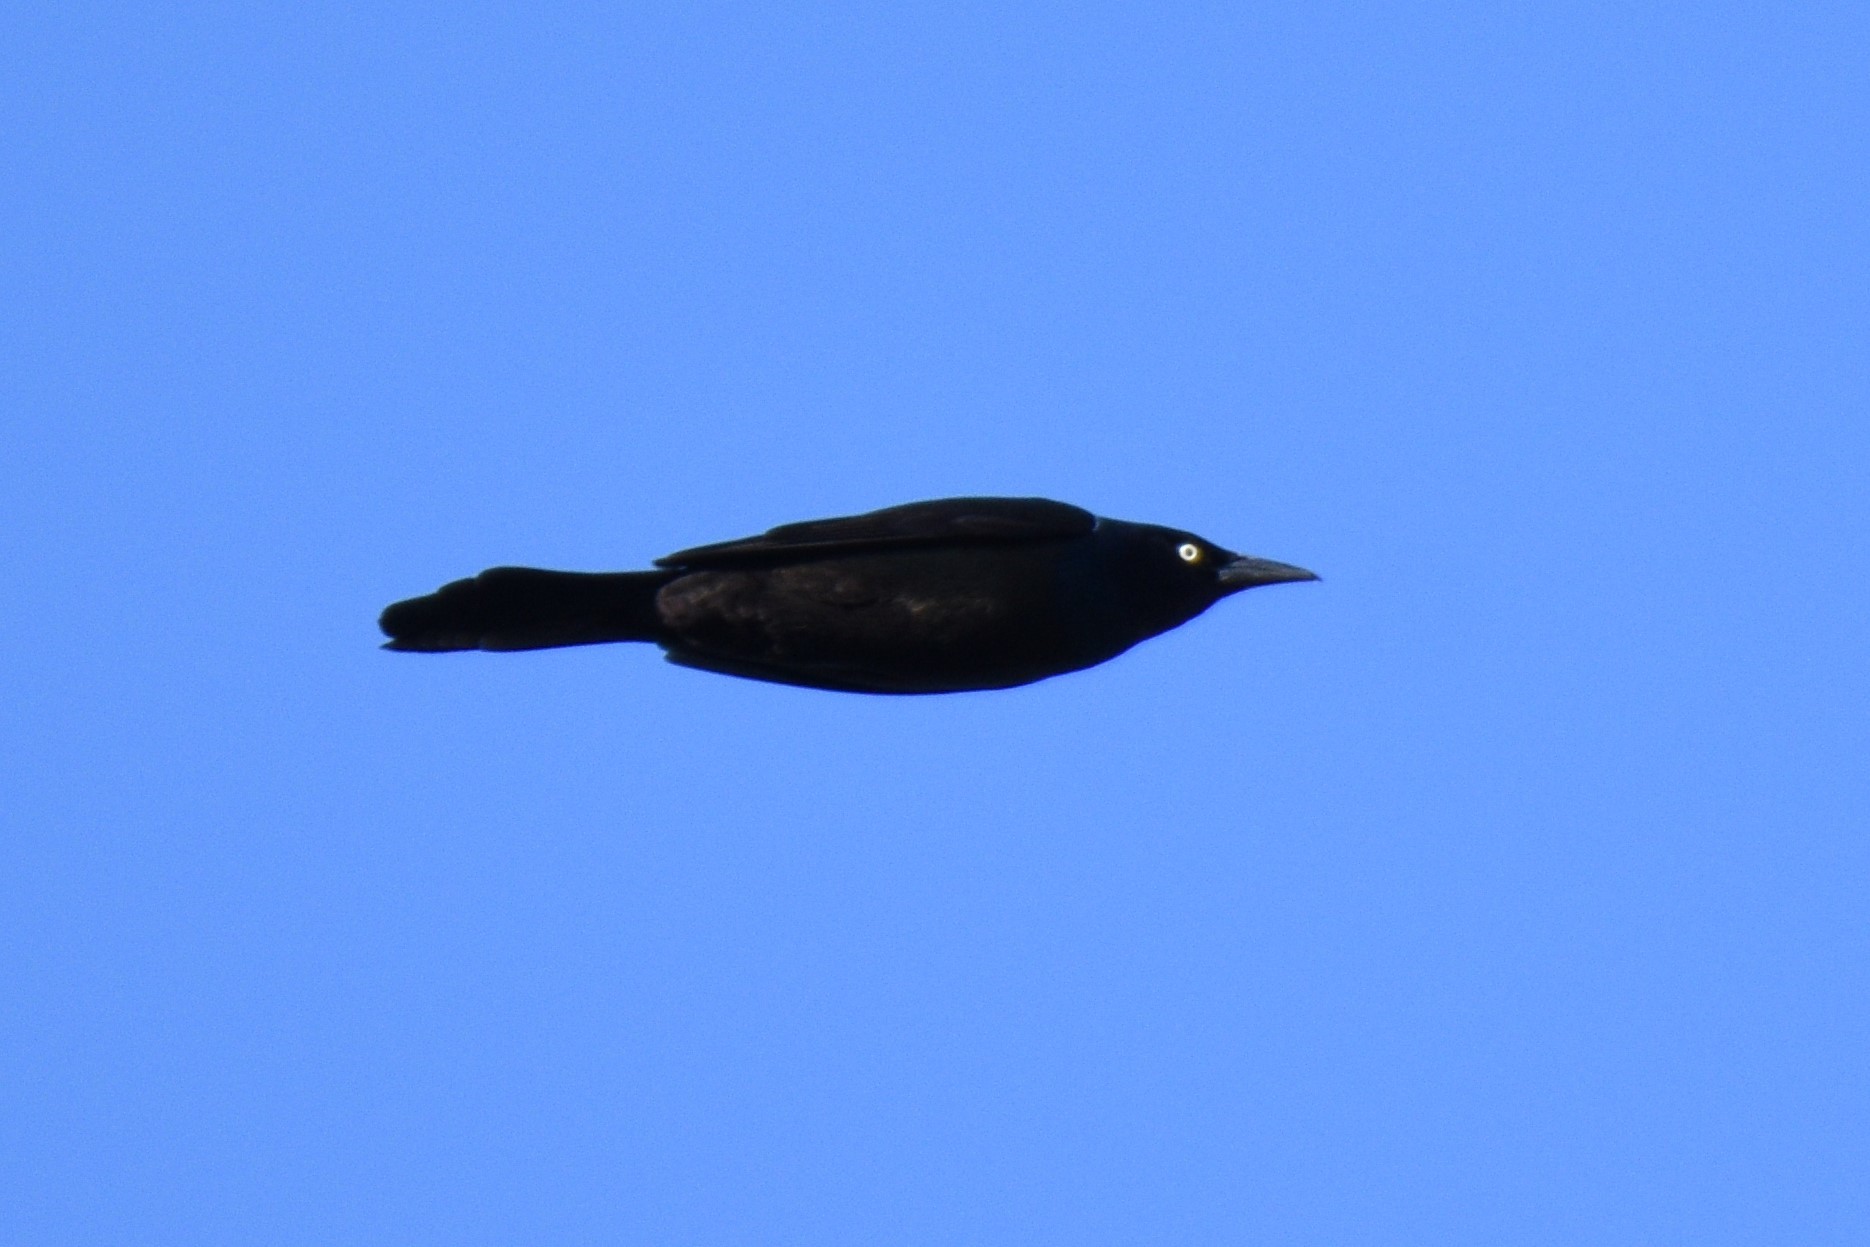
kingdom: Animalia
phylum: Chordata
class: Aves
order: Passeriformes
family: Icteridae
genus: Quiscalus
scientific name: Quiscalus quiscula
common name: Common grackle
